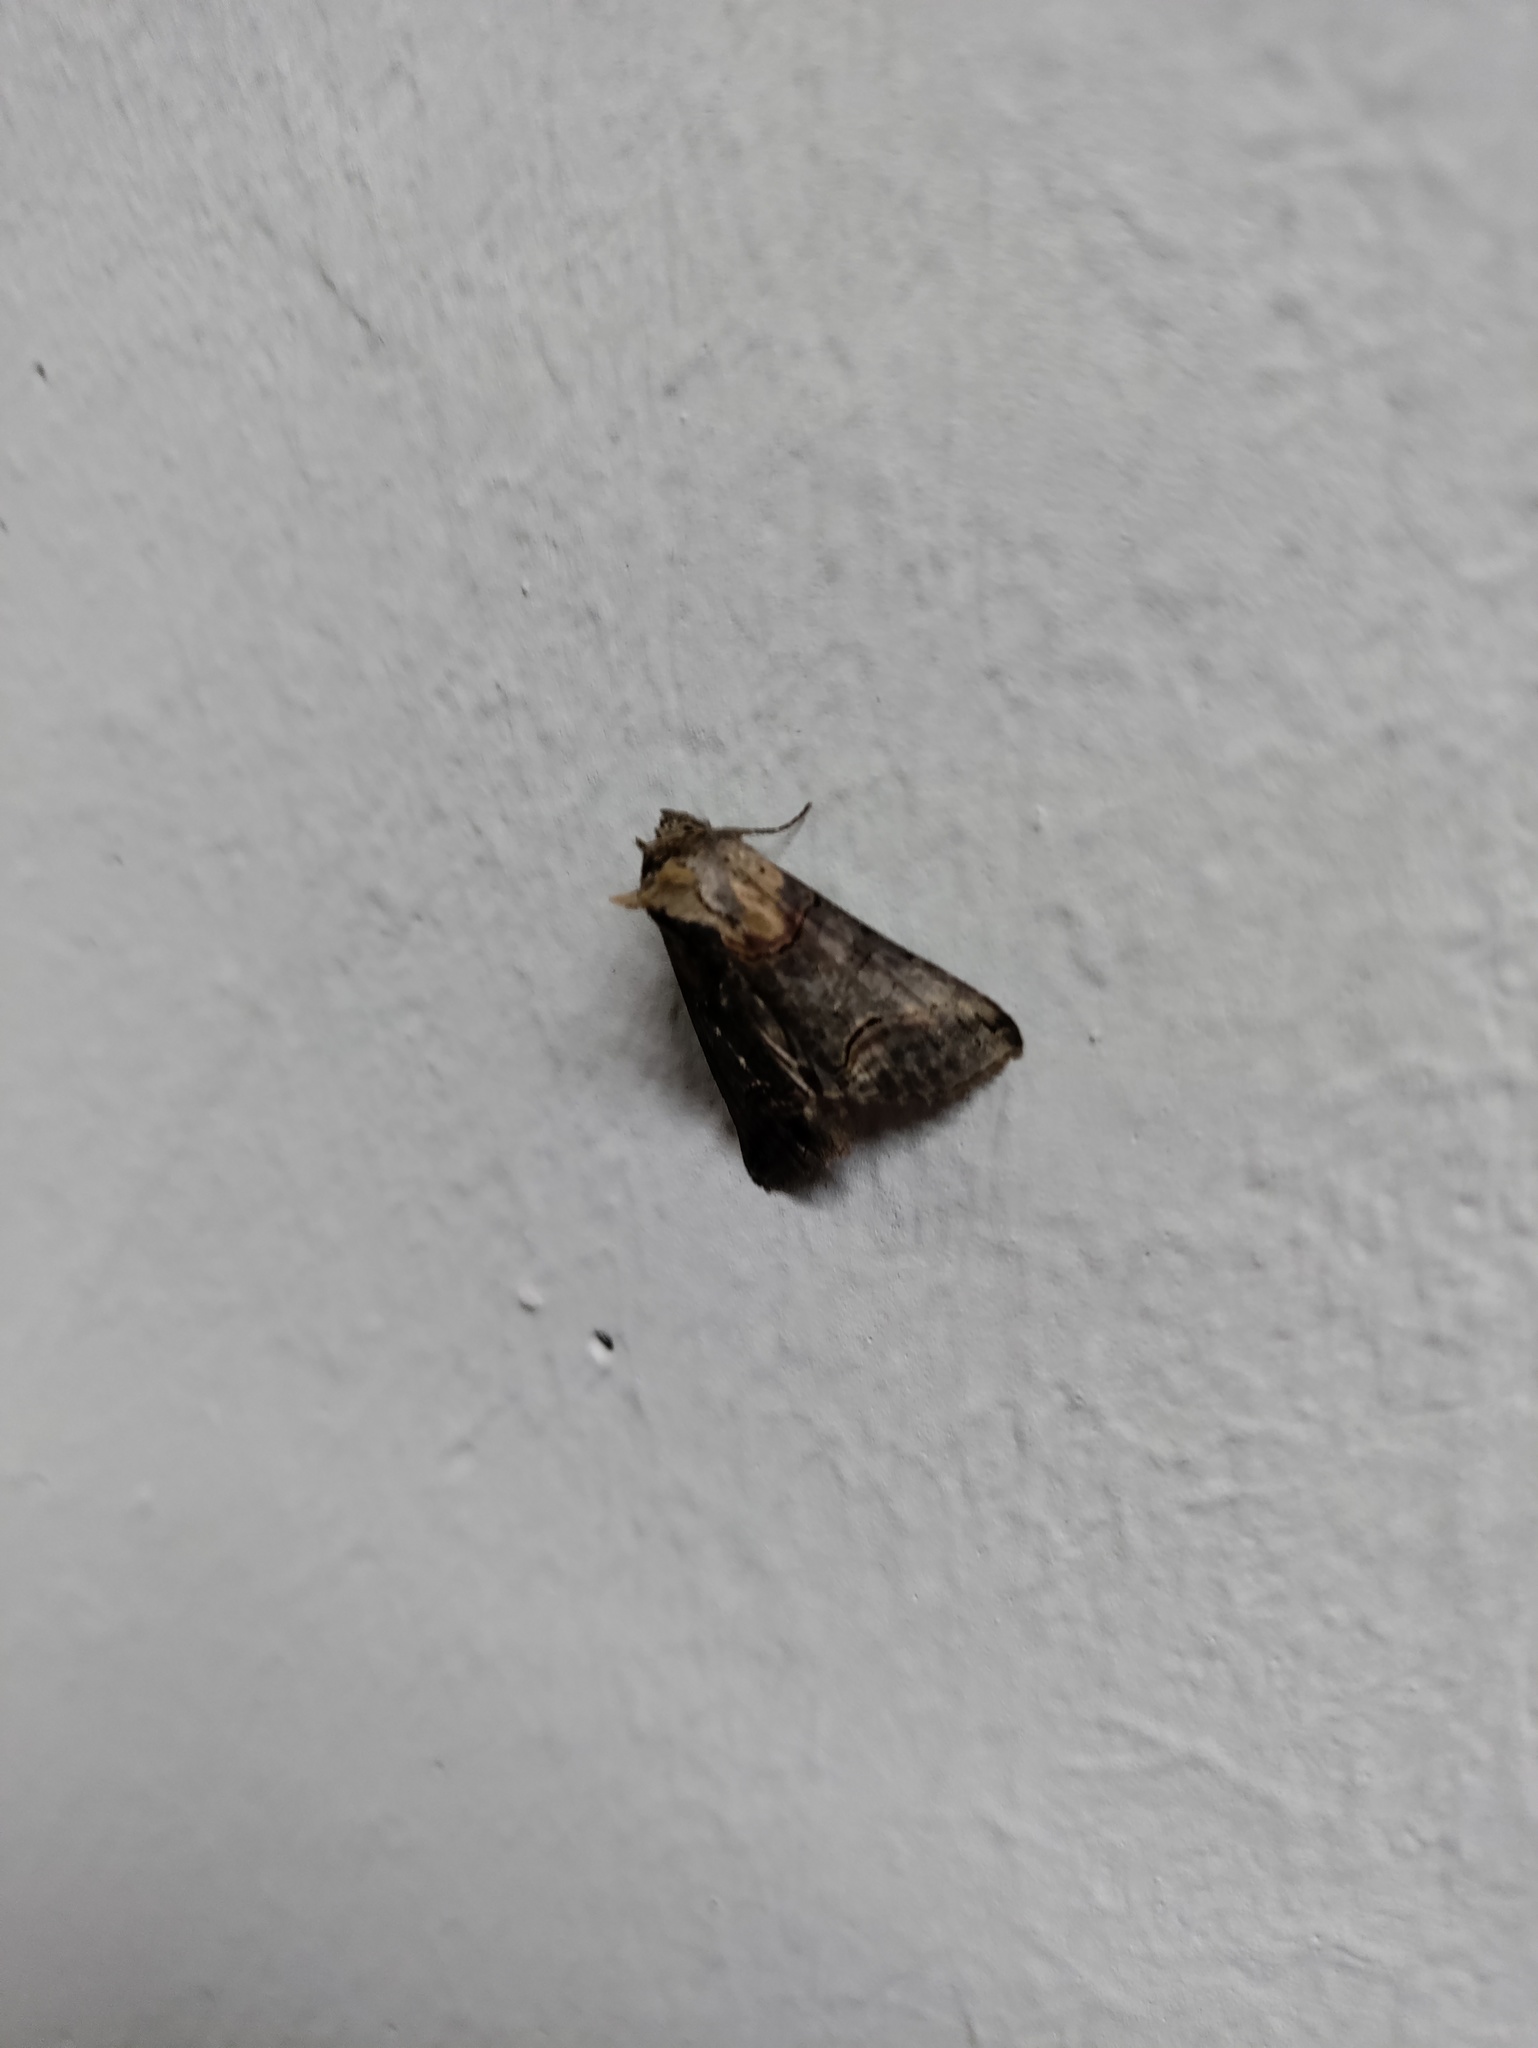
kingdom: Animalia
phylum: Arthropoda
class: Insecta
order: Lepidoptera
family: Noctuidae
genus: Abrostola
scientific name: Abrostola triplasia
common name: Dark spectacle
